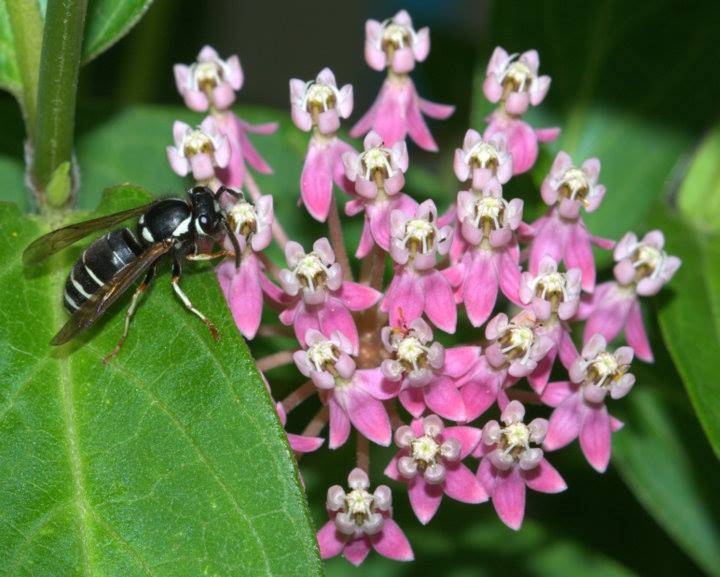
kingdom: Animalia
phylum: Arthropoda
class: Insecta
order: Hymenoptera
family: Vespidae
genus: Vespula
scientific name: Vespula consobrina
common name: Blackjacket
